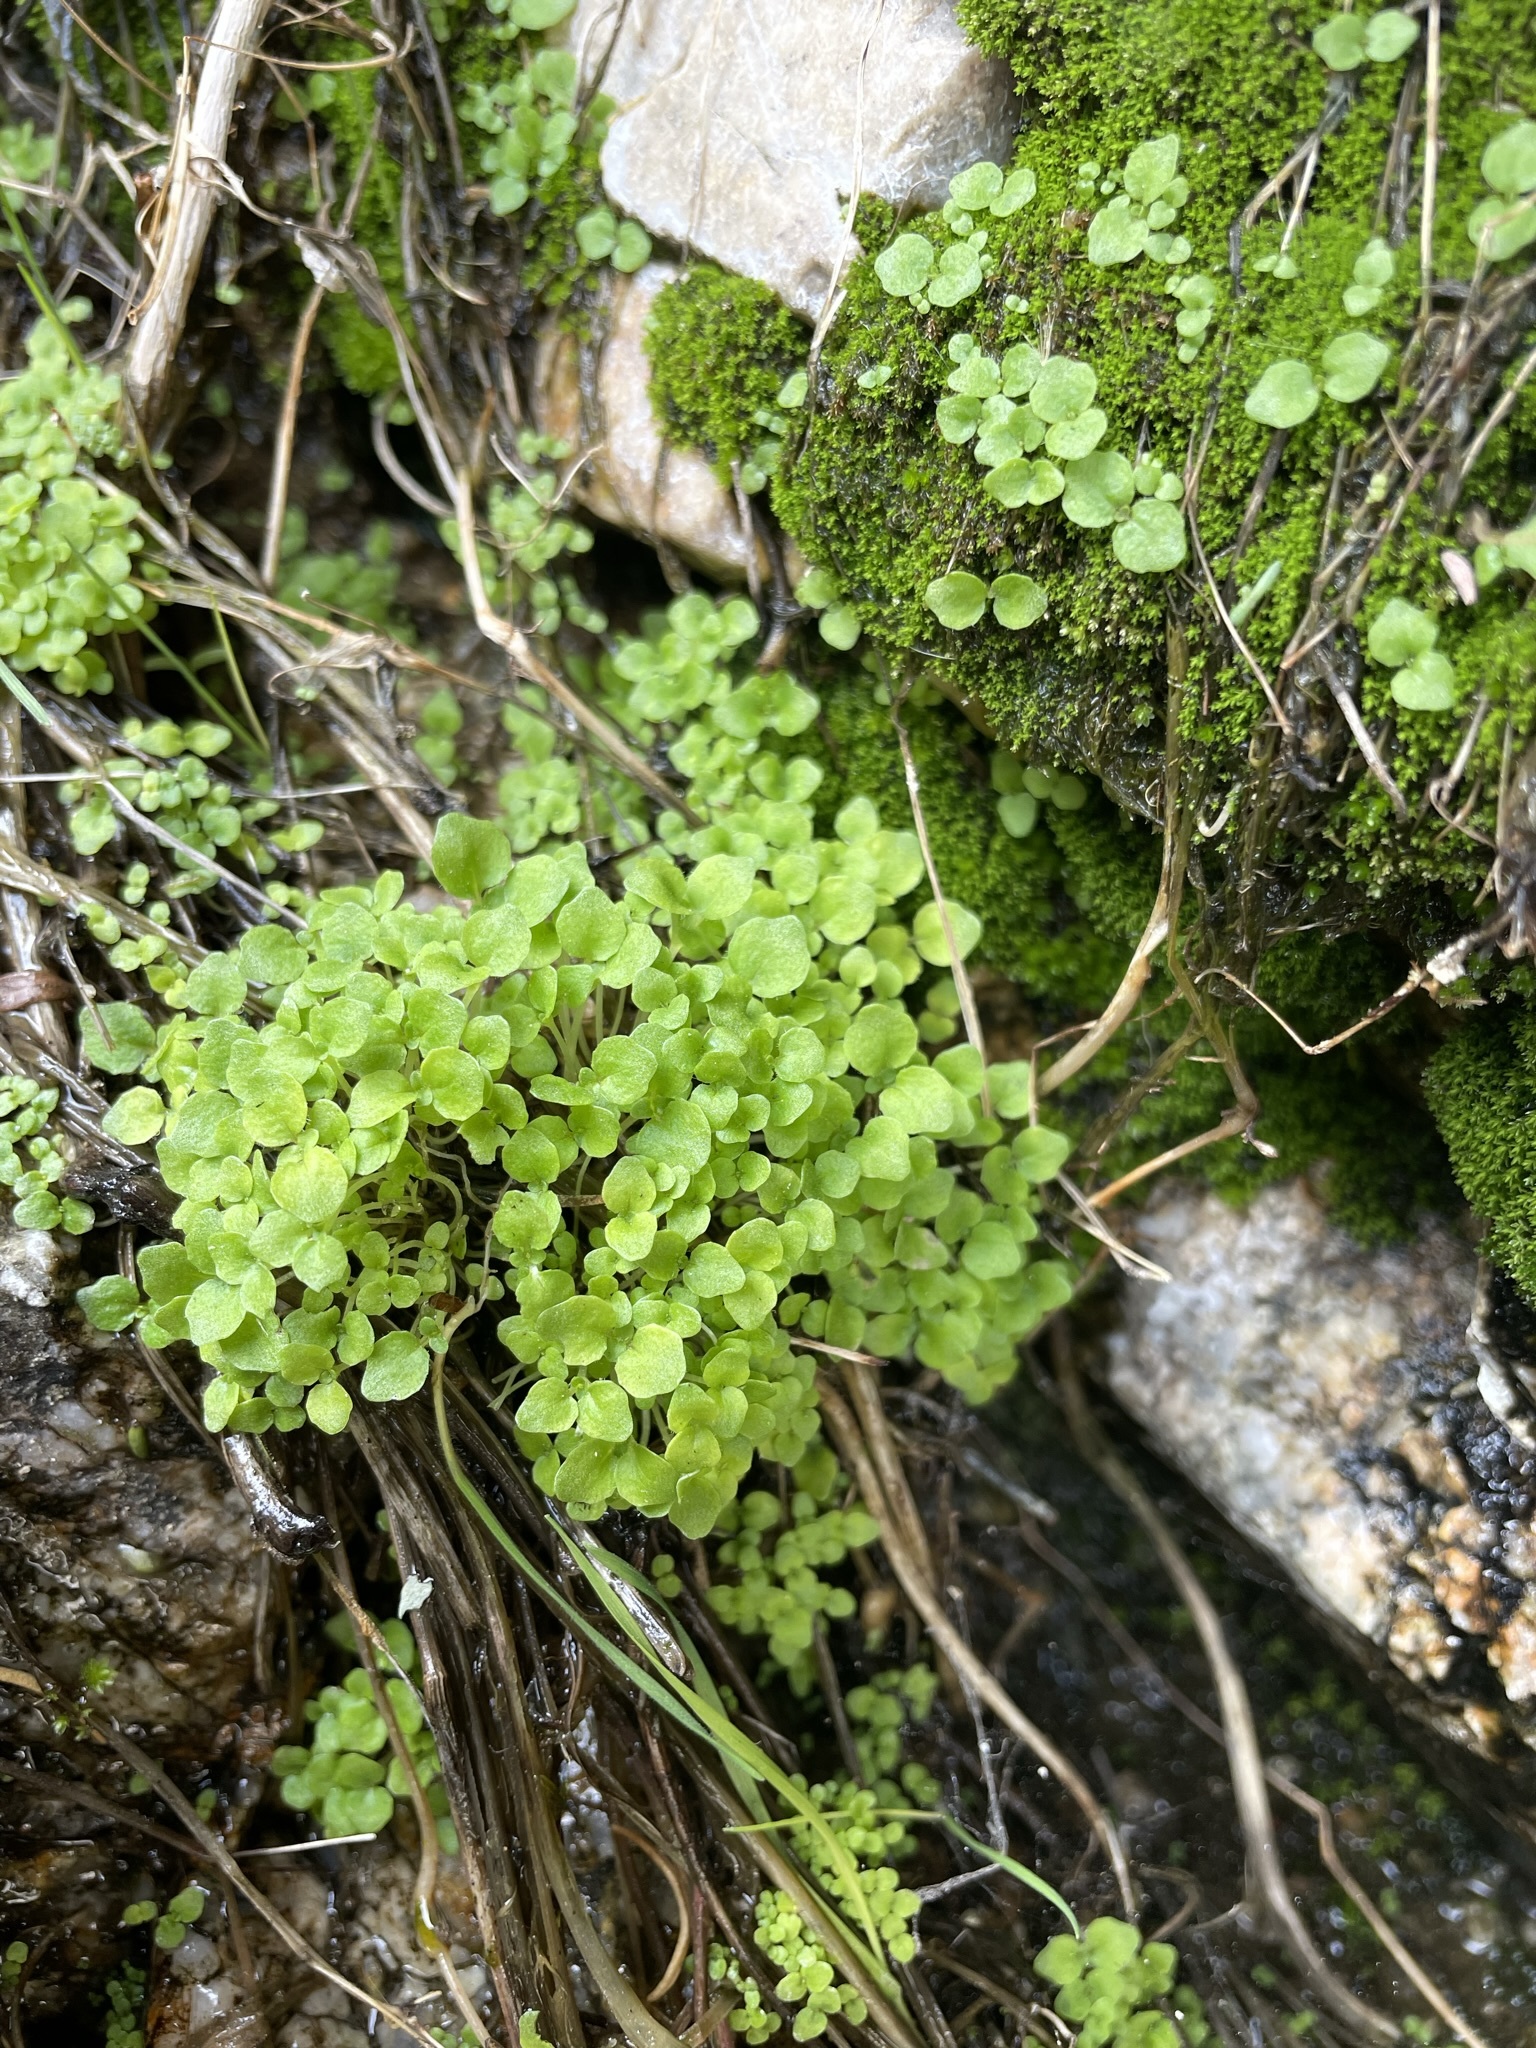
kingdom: Plantae
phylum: Tracheophyta
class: Magnoliopsida
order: Lamiales
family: Phrymaceae
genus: Erythranthe
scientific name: Erythranthe bergeri
